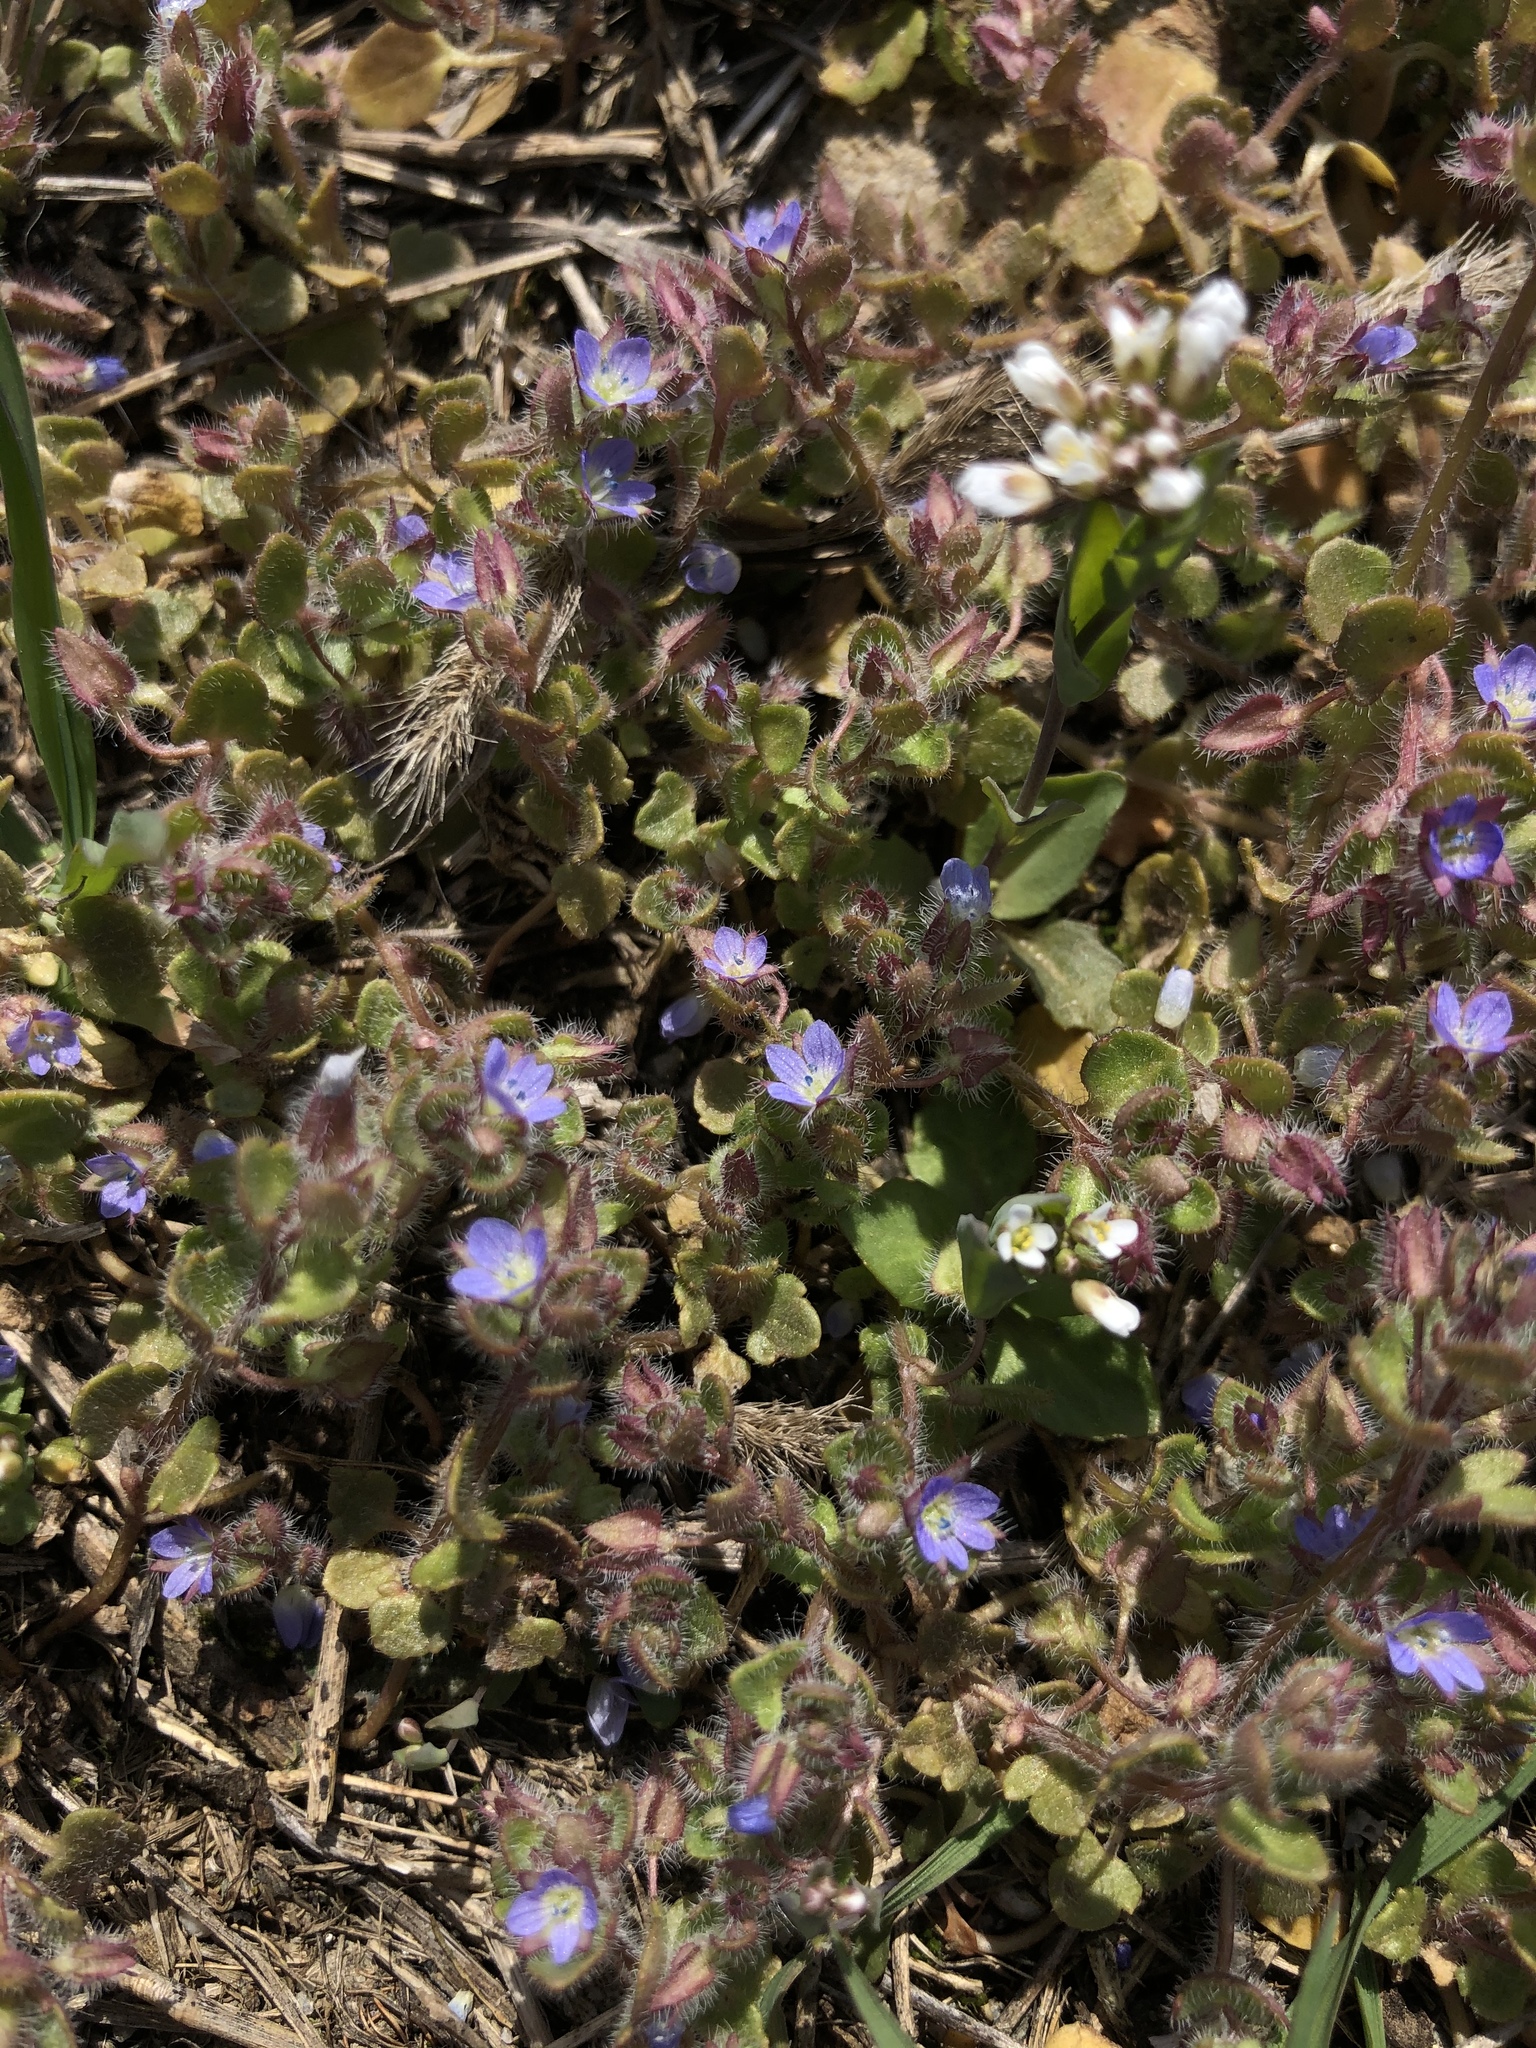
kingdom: Plantae
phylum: Tracheophyta
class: Magnoliopsida
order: Lamiales
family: Plantaginaceae
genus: Veronica
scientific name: Veronica hederifolia
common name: Ivy-leaved speedwell
